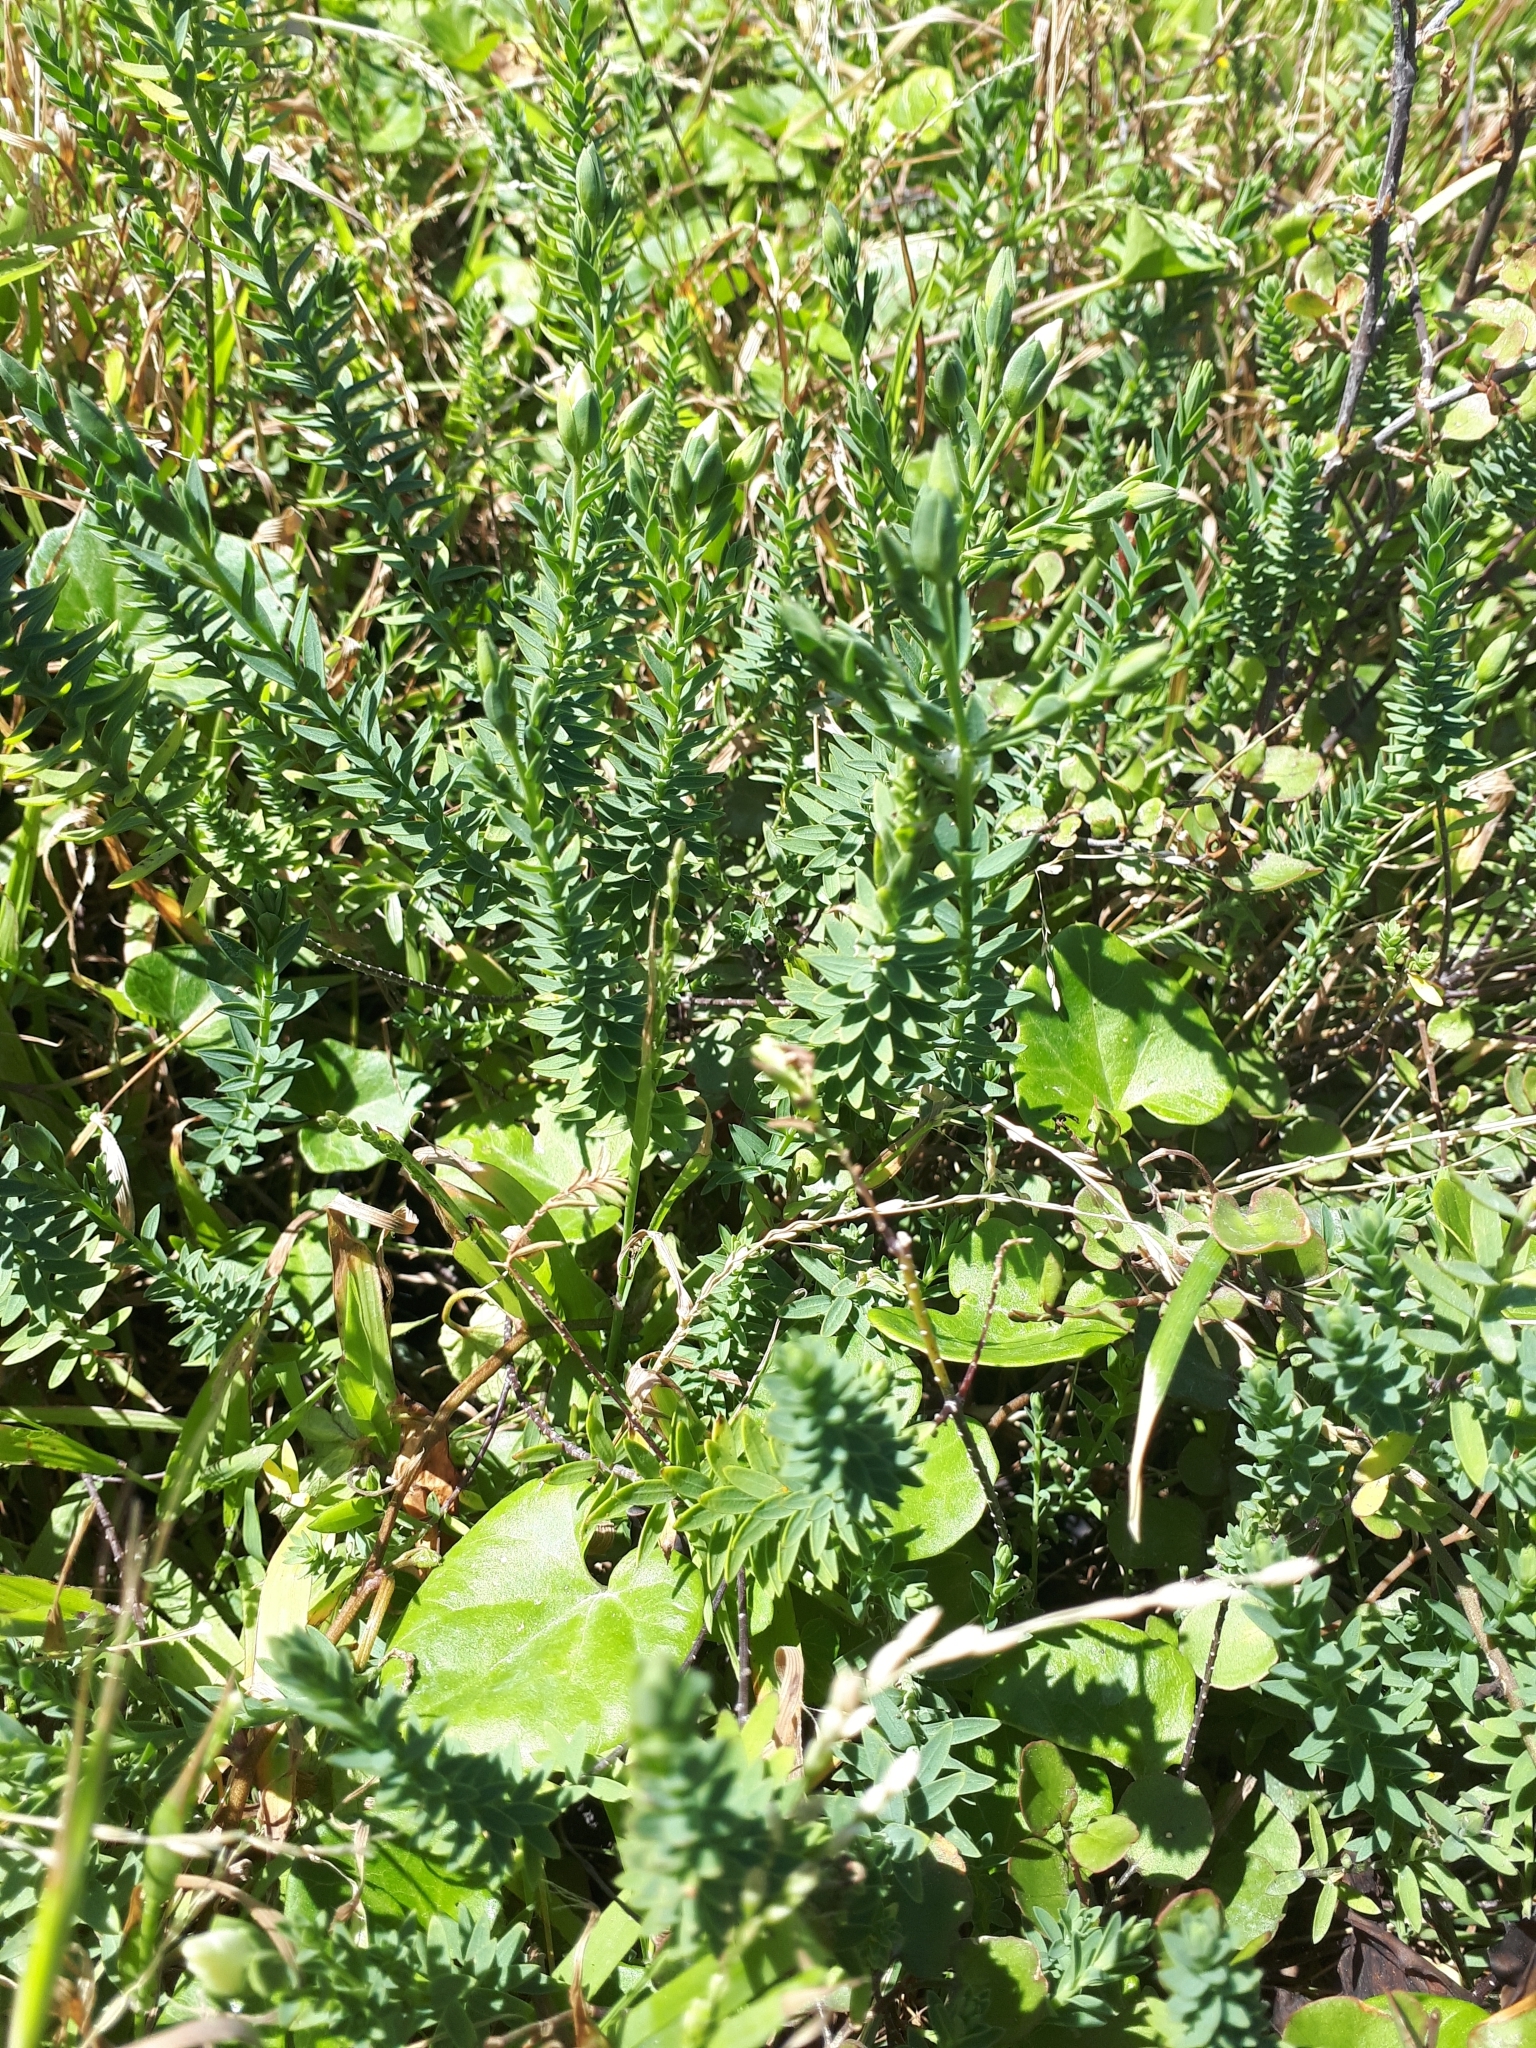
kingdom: Plantae
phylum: Tracheophyta
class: Magnoliopsida
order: Malpighiales
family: Linaceae
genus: Linum
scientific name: Linum monogynum
